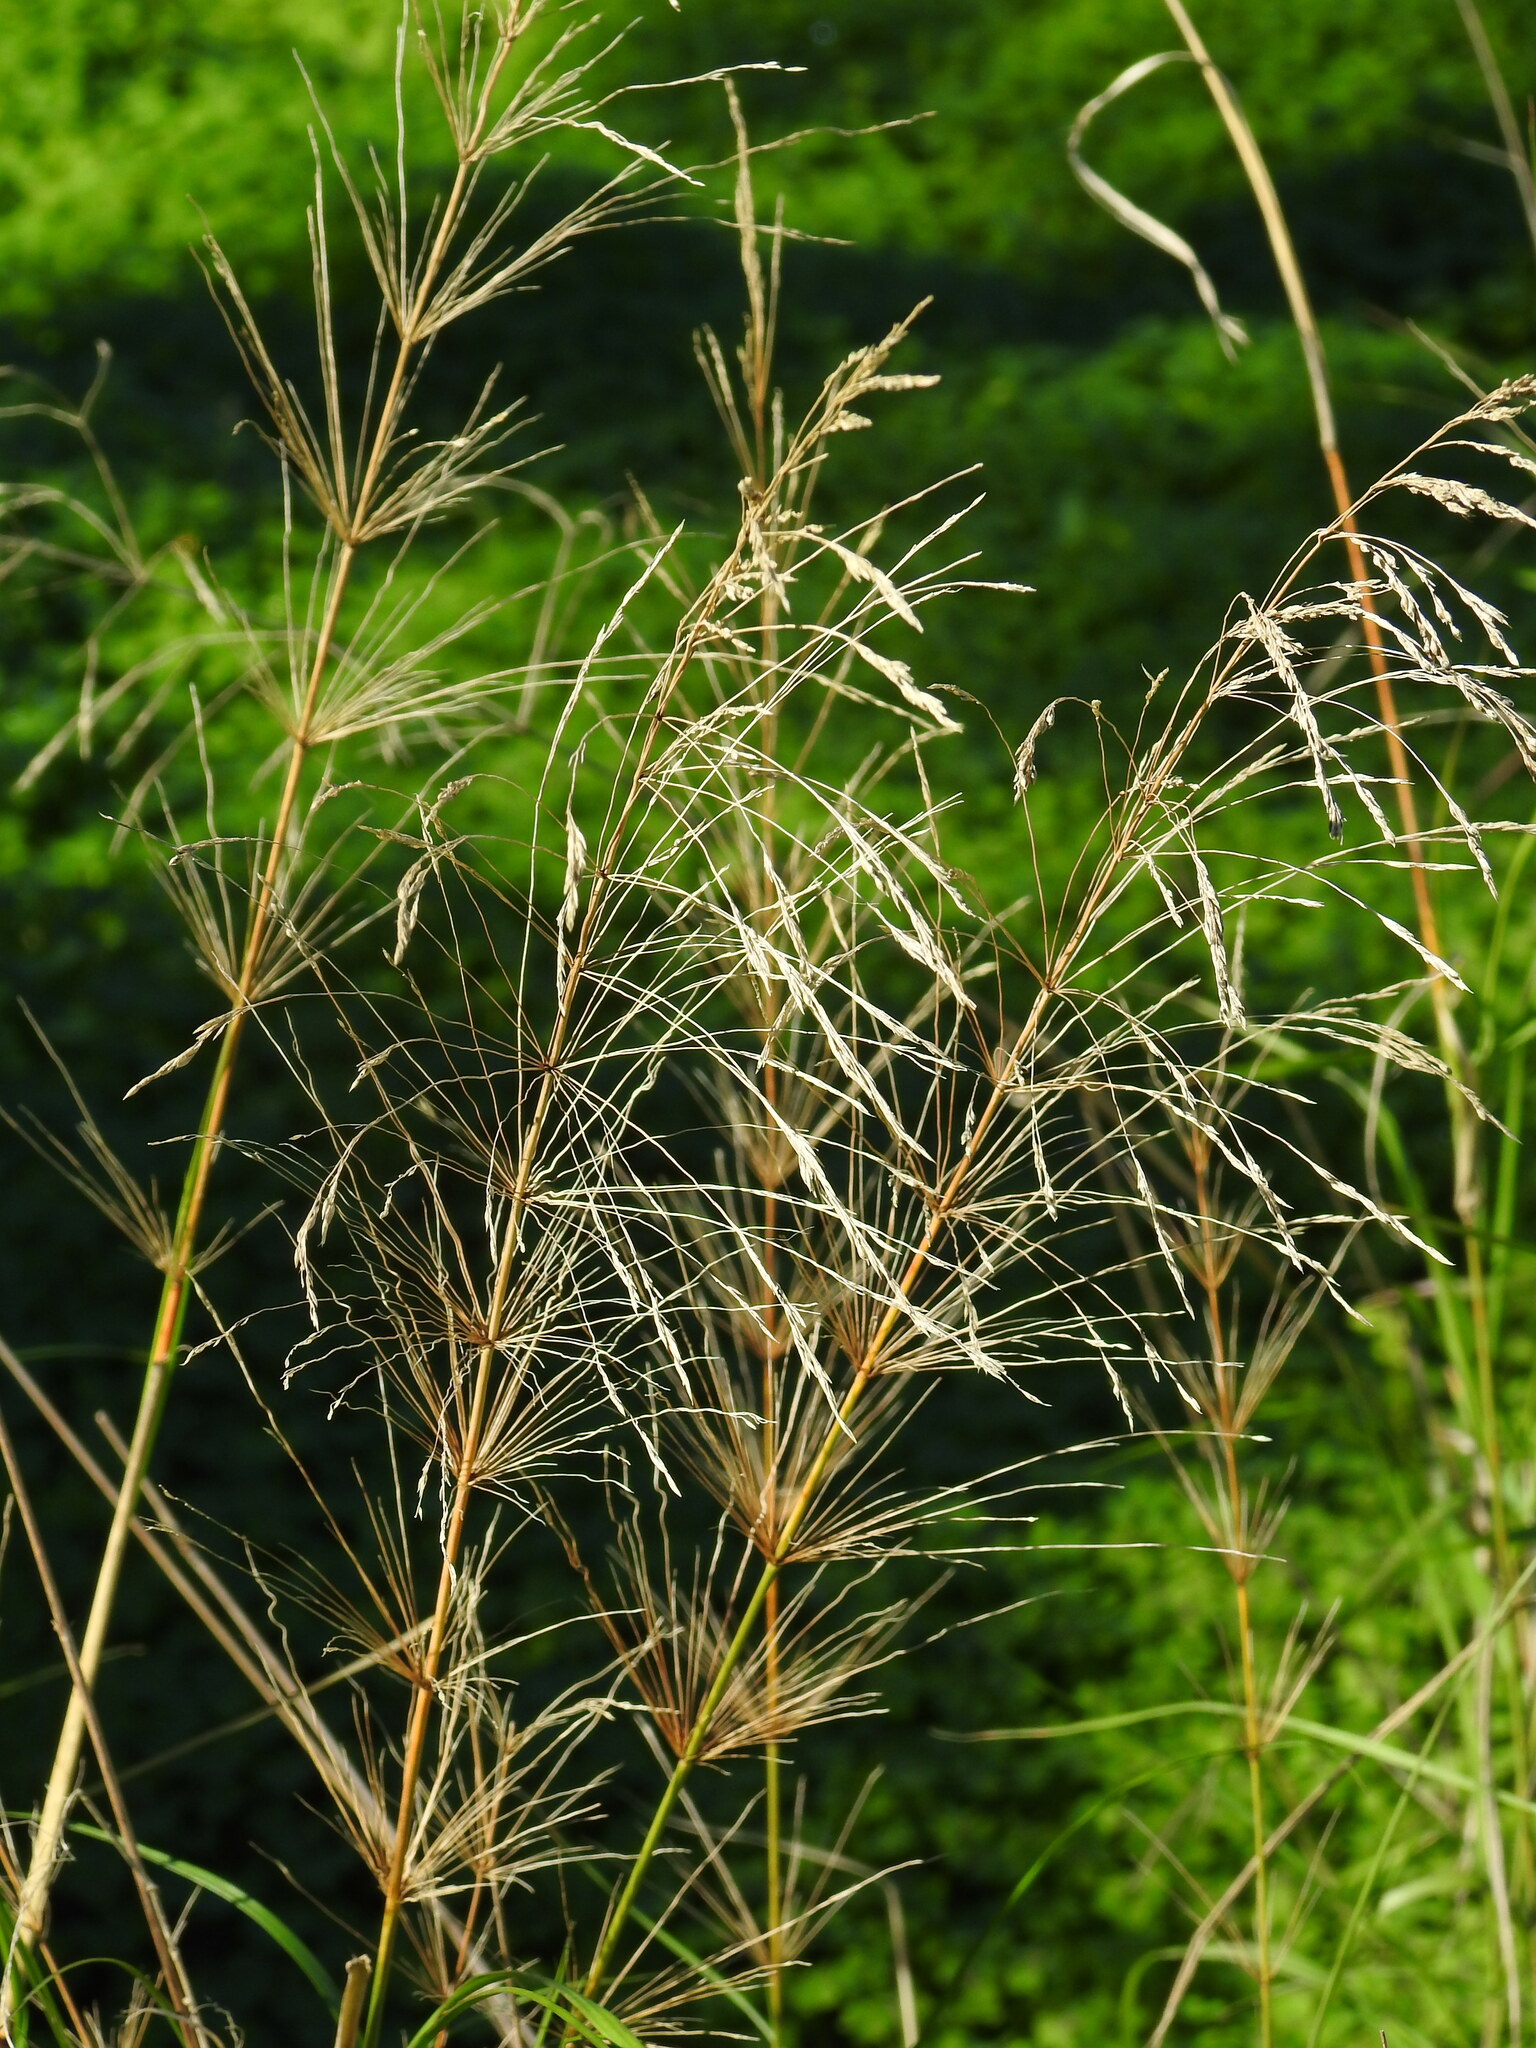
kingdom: Plantae
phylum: Tracheophyta
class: Liliopsida
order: Poales
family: Poaceae
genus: Oloptum
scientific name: Oloptum thomasii
